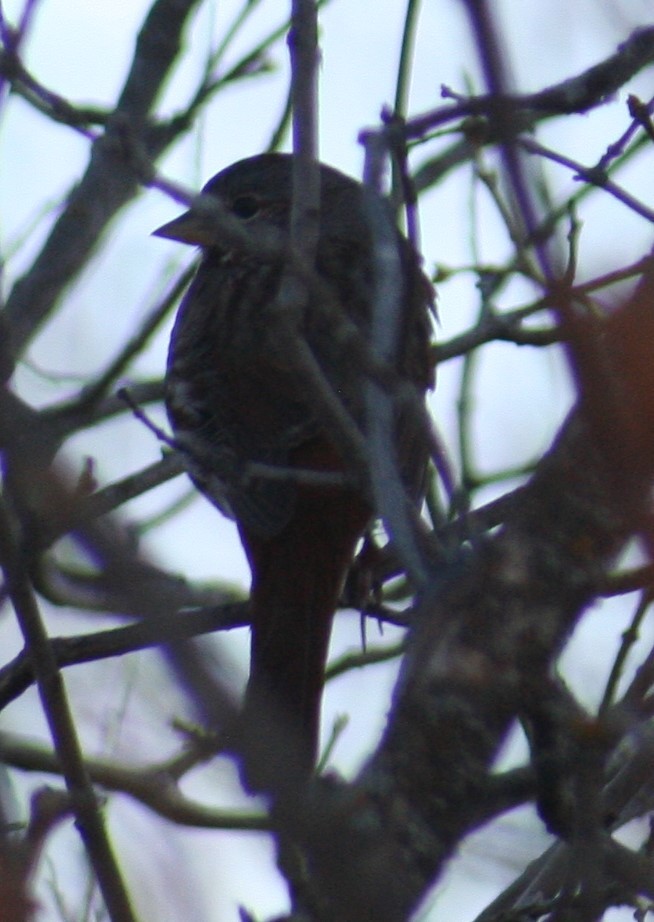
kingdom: Animalia
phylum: Chordata
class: Aves
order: Passeriformes
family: Passerellidae
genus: Passerella
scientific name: Passerella iliaca
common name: Fox sparrow
